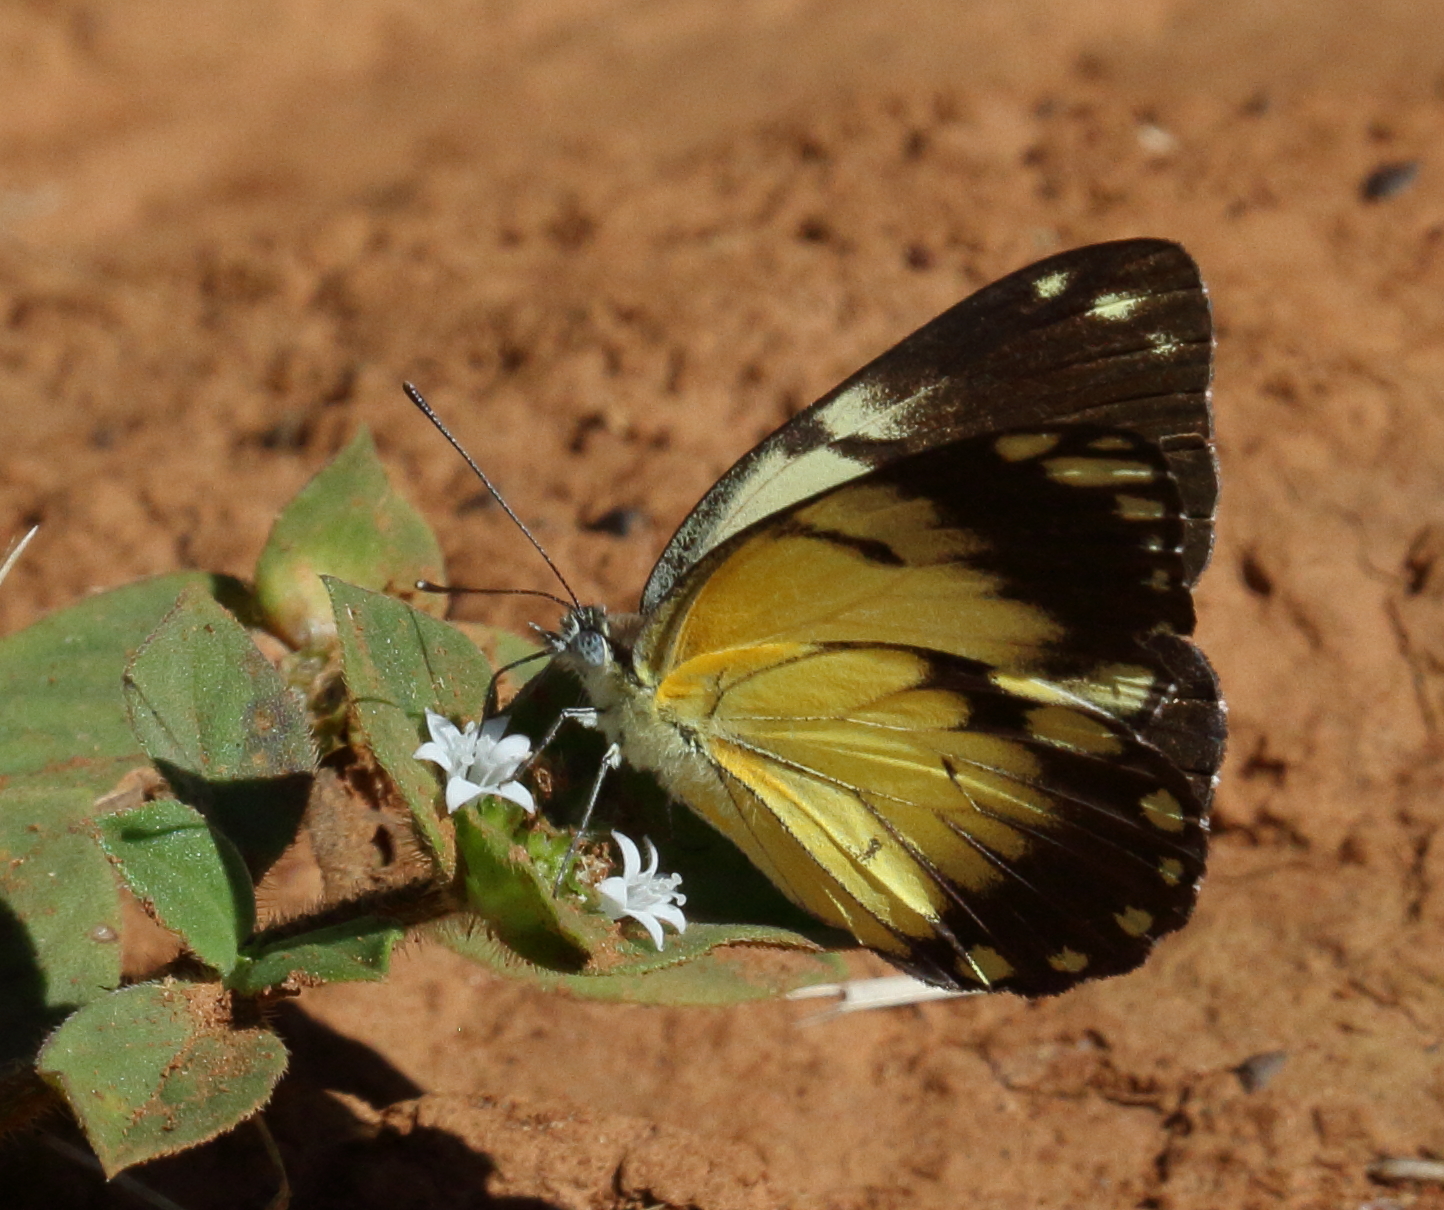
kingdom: Animalia
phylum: Arthropoda
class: Insecta
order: Lepidoptera
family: Pieridae
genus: Belenois
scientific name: Belenois creona
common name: African caper white
